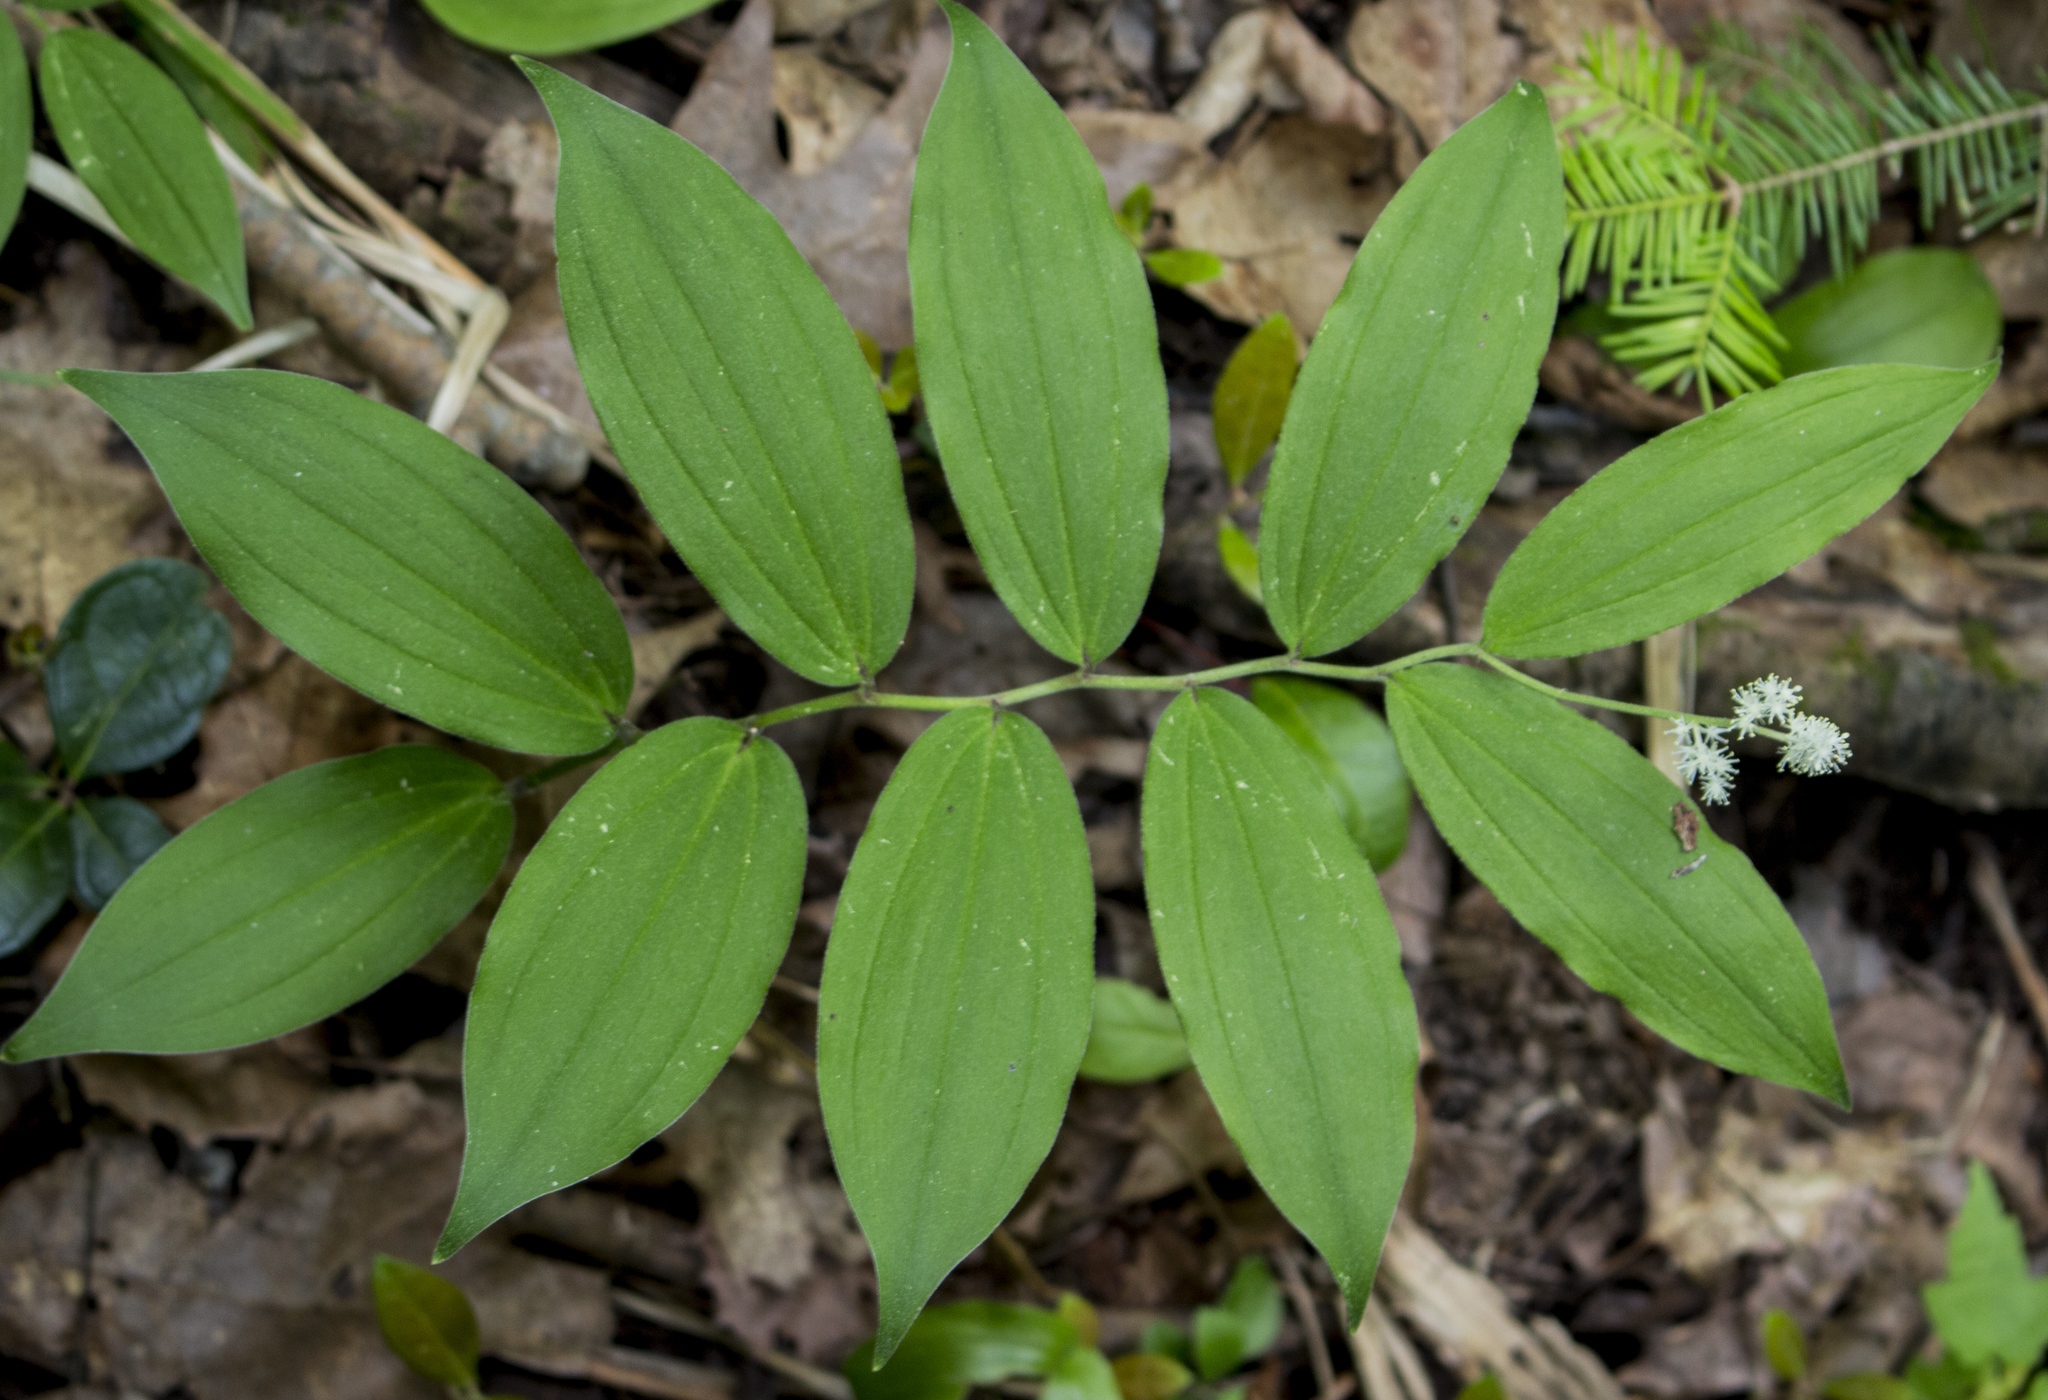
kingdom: Plantae
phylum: Tracheophyta
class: Liliopsida
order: Asparagales
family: Asparagaceae
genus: Maianthemum
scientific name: Maianthemum racemosum
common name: False spikenard
